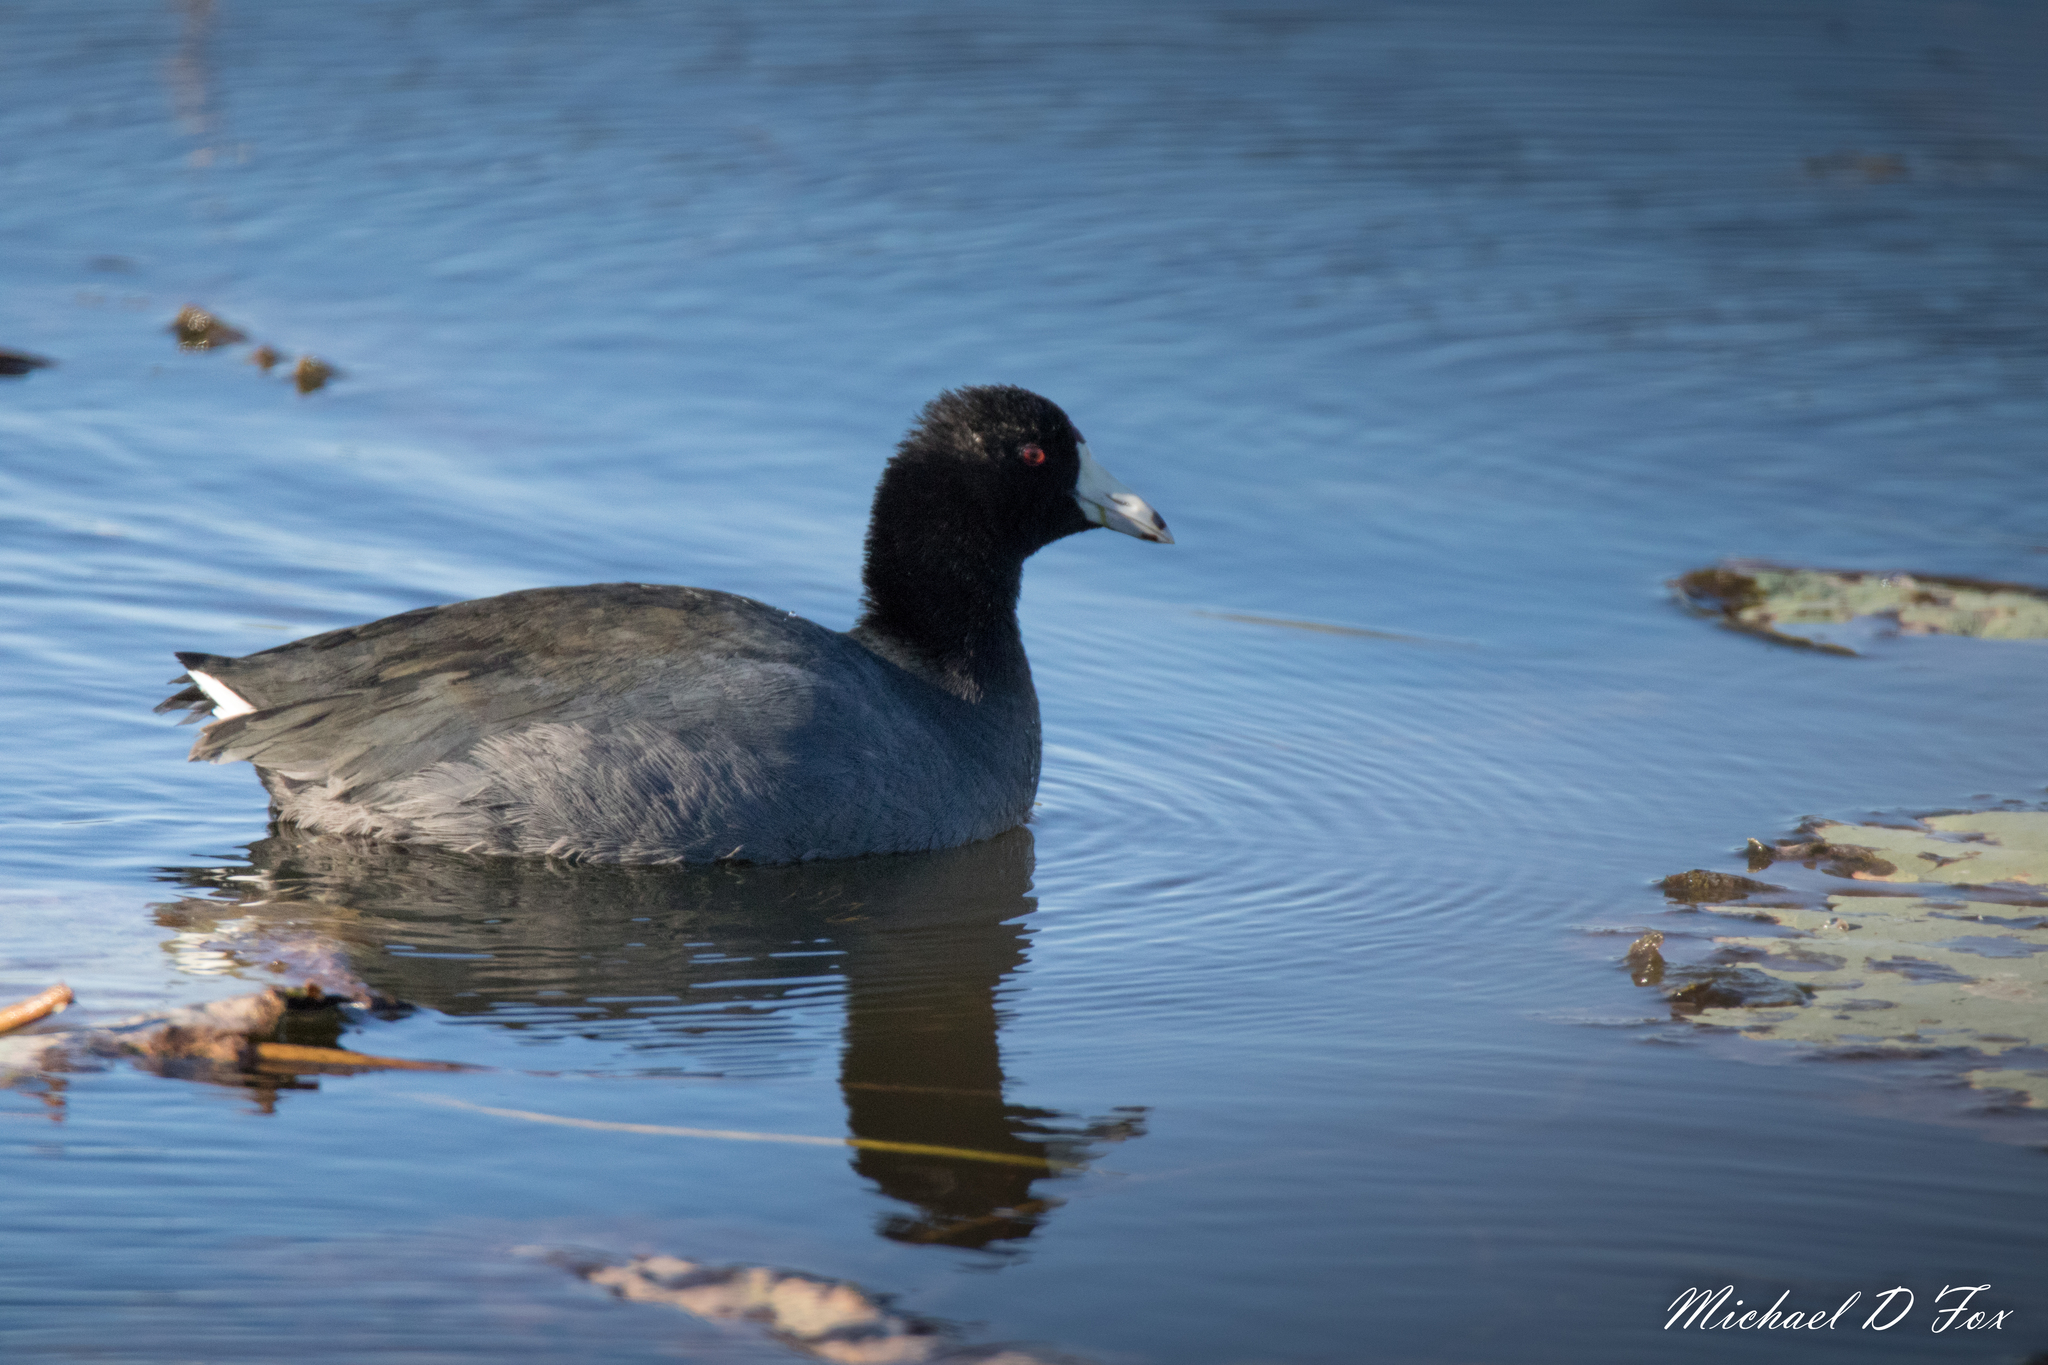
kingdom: Animalia
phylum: Chordata
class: Aves
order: Gruiformes
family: Rallidae
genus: Fulica
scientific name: Fulica americana
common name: American coot
